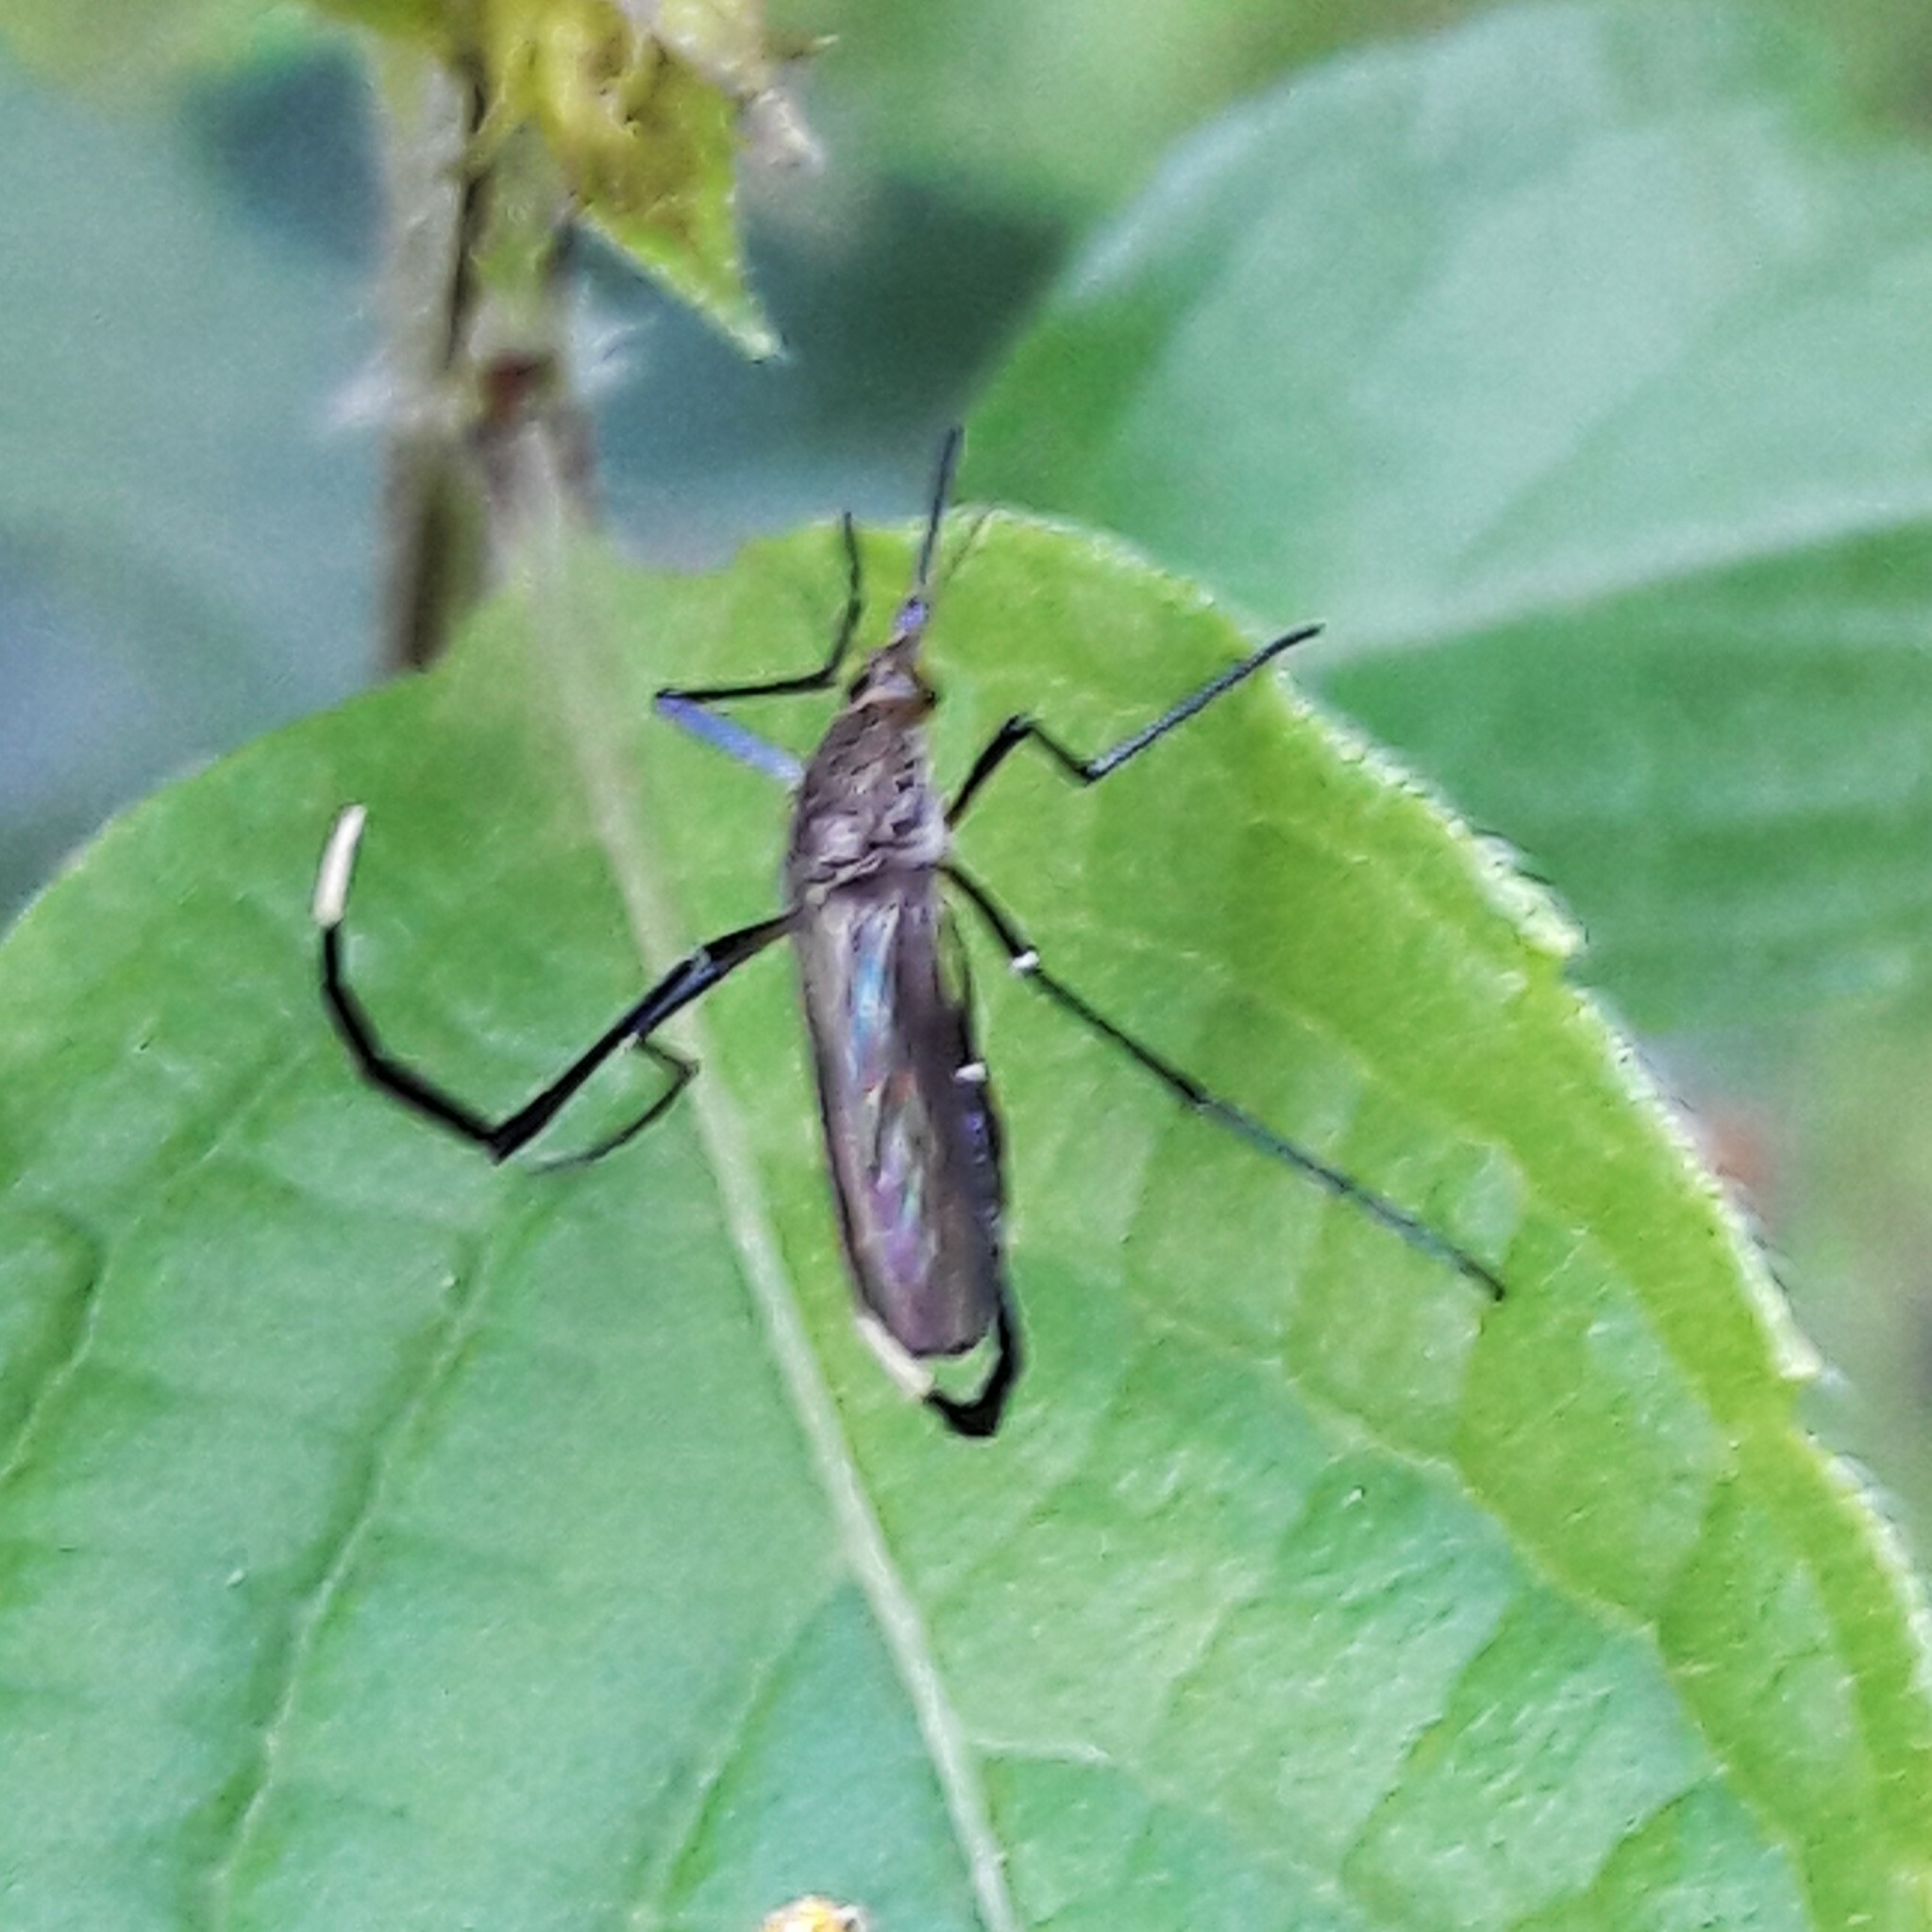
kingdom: Animalia
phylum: Arthropoda
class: Insecta
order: Diptera
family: Culicidae
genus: Psorophora
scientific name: Psorophora ferox
